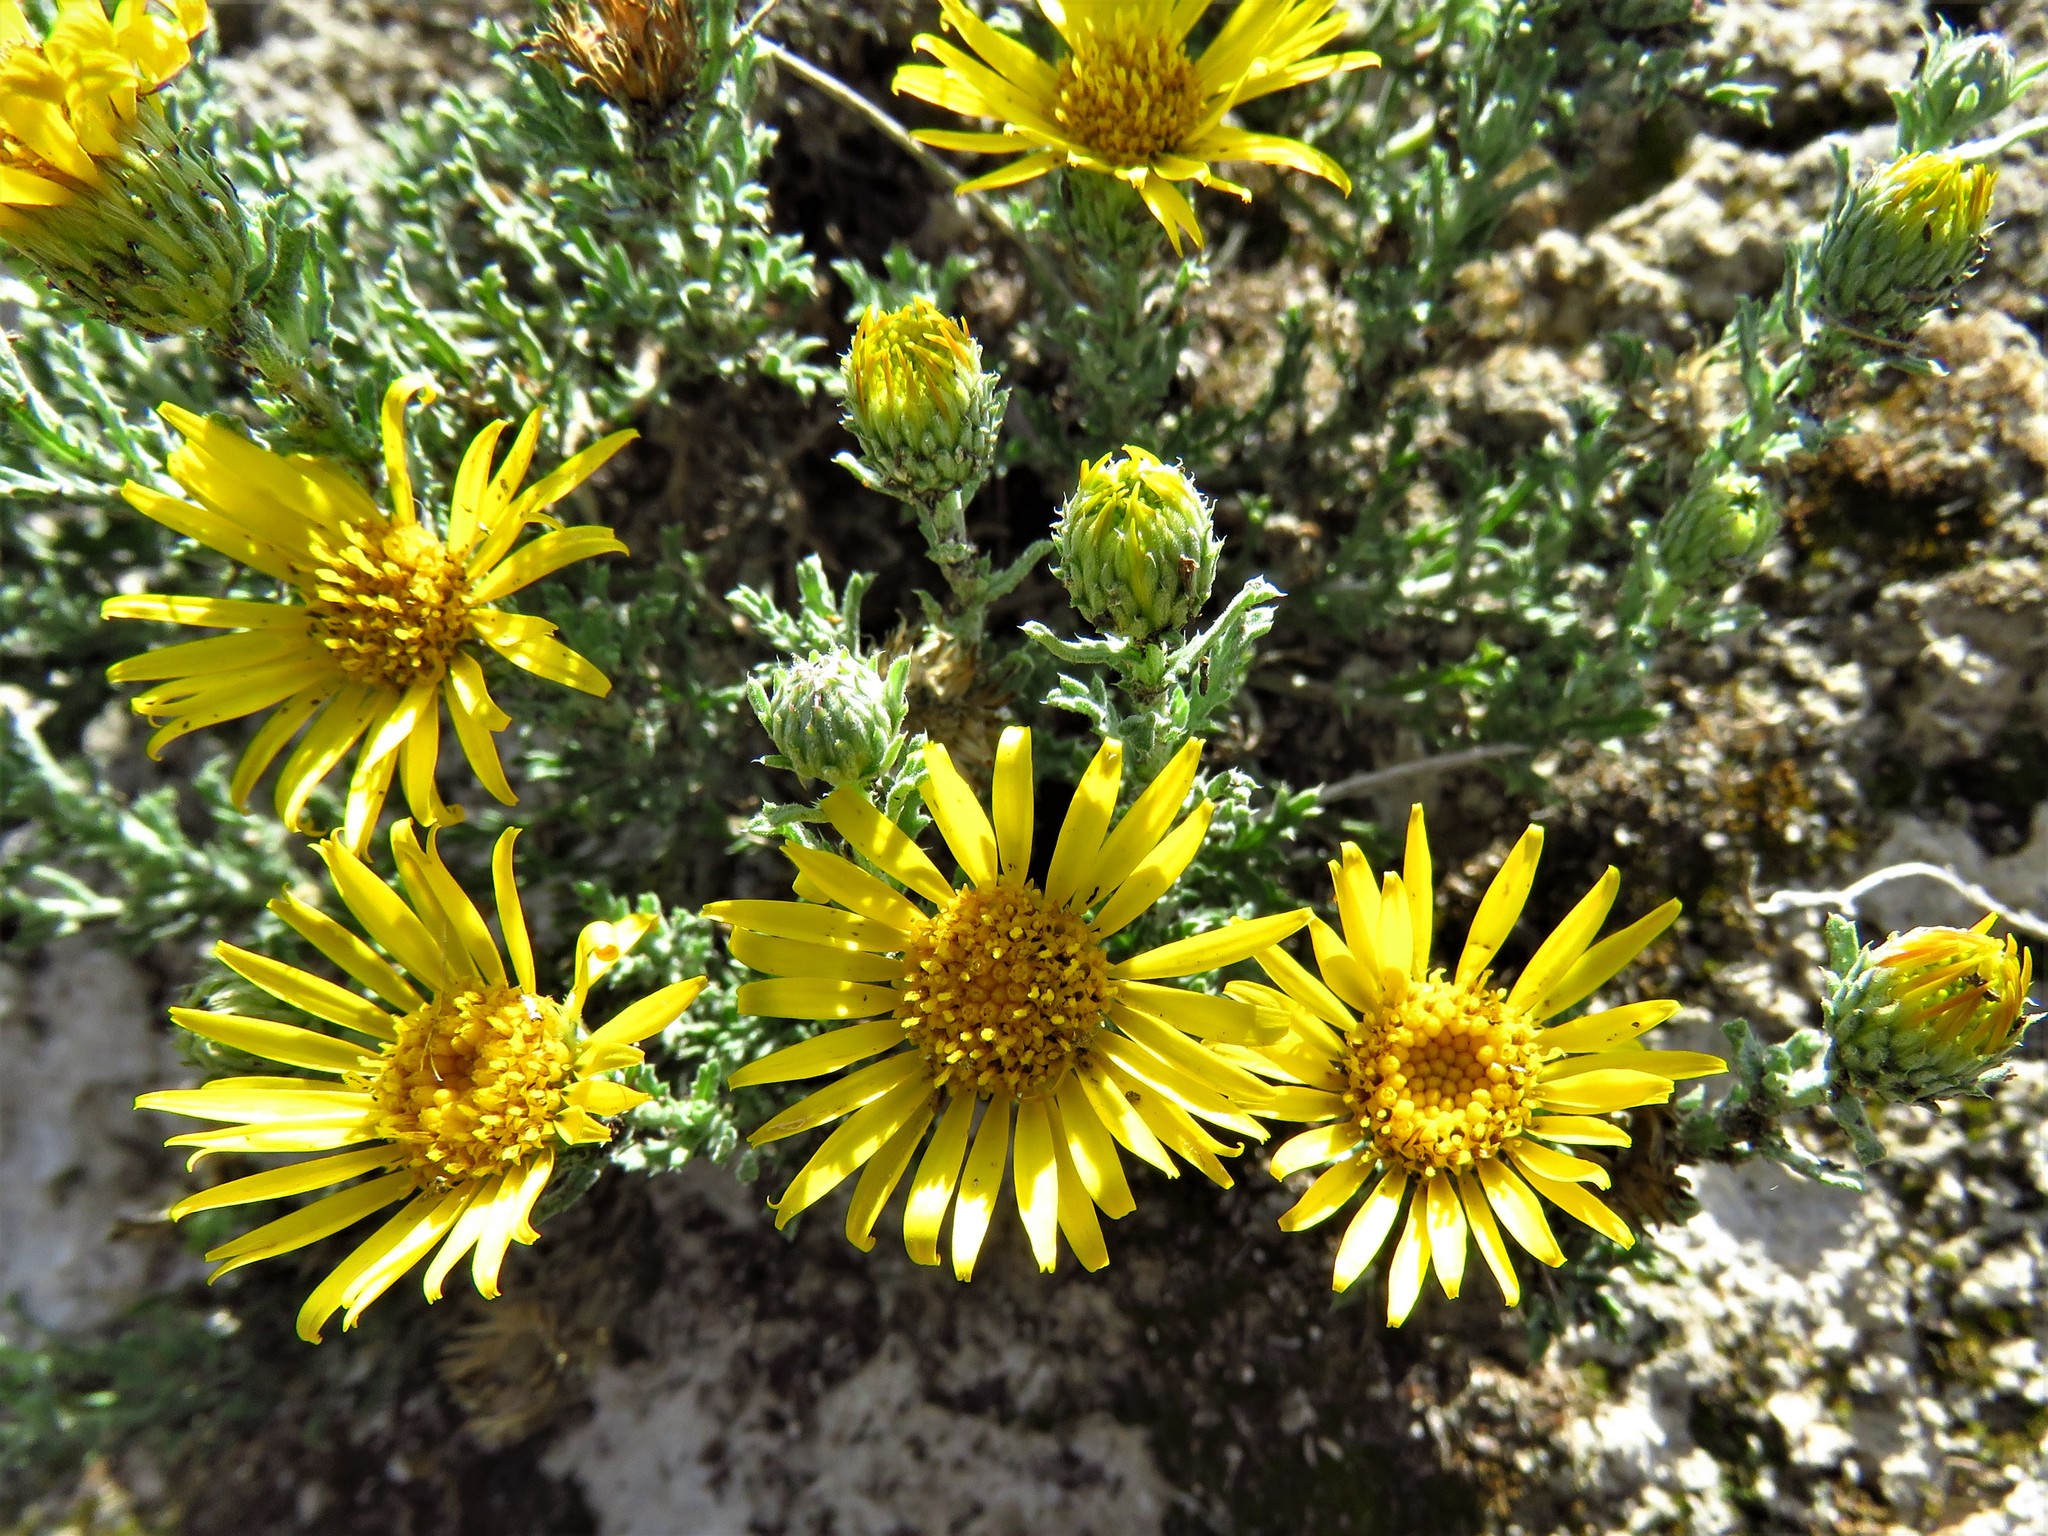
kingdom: Plantae
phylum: Tracheophyta
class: Magnoliopsida
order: Asterales
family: Asteraceae
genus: Xanthisma
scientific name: Xanthisma spinulosum
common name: Spiny goldenweed
